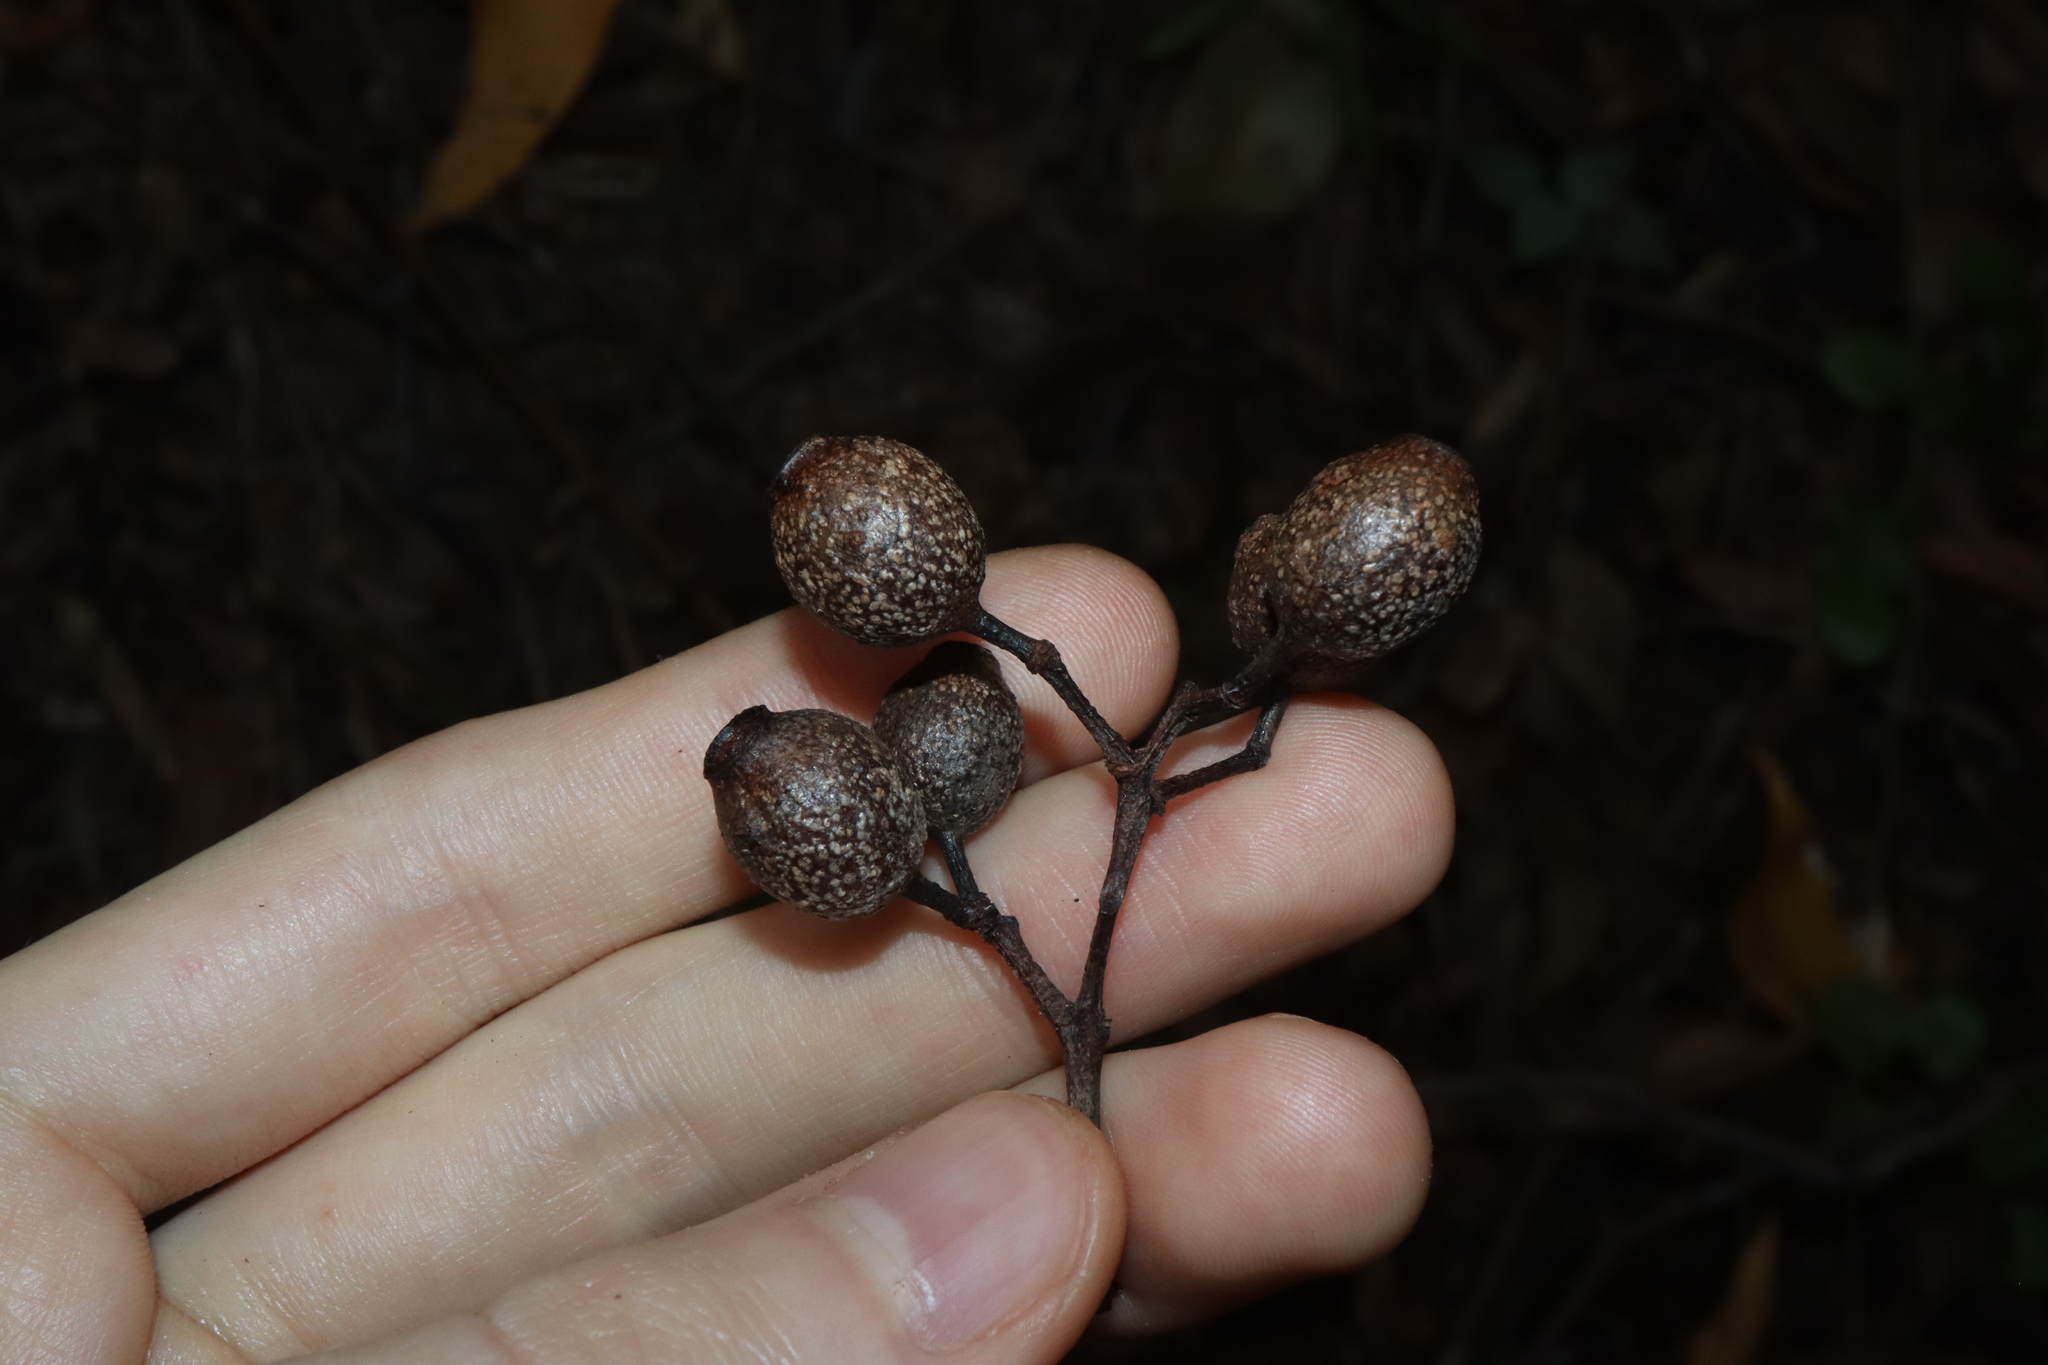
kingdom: Plantae
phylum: Tracheophyta
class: Magnoliopsida
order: Myrtales
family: Myrtaceae
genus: Corymbia
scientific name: Corymbia intermedia
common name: Pink-bloodwood
